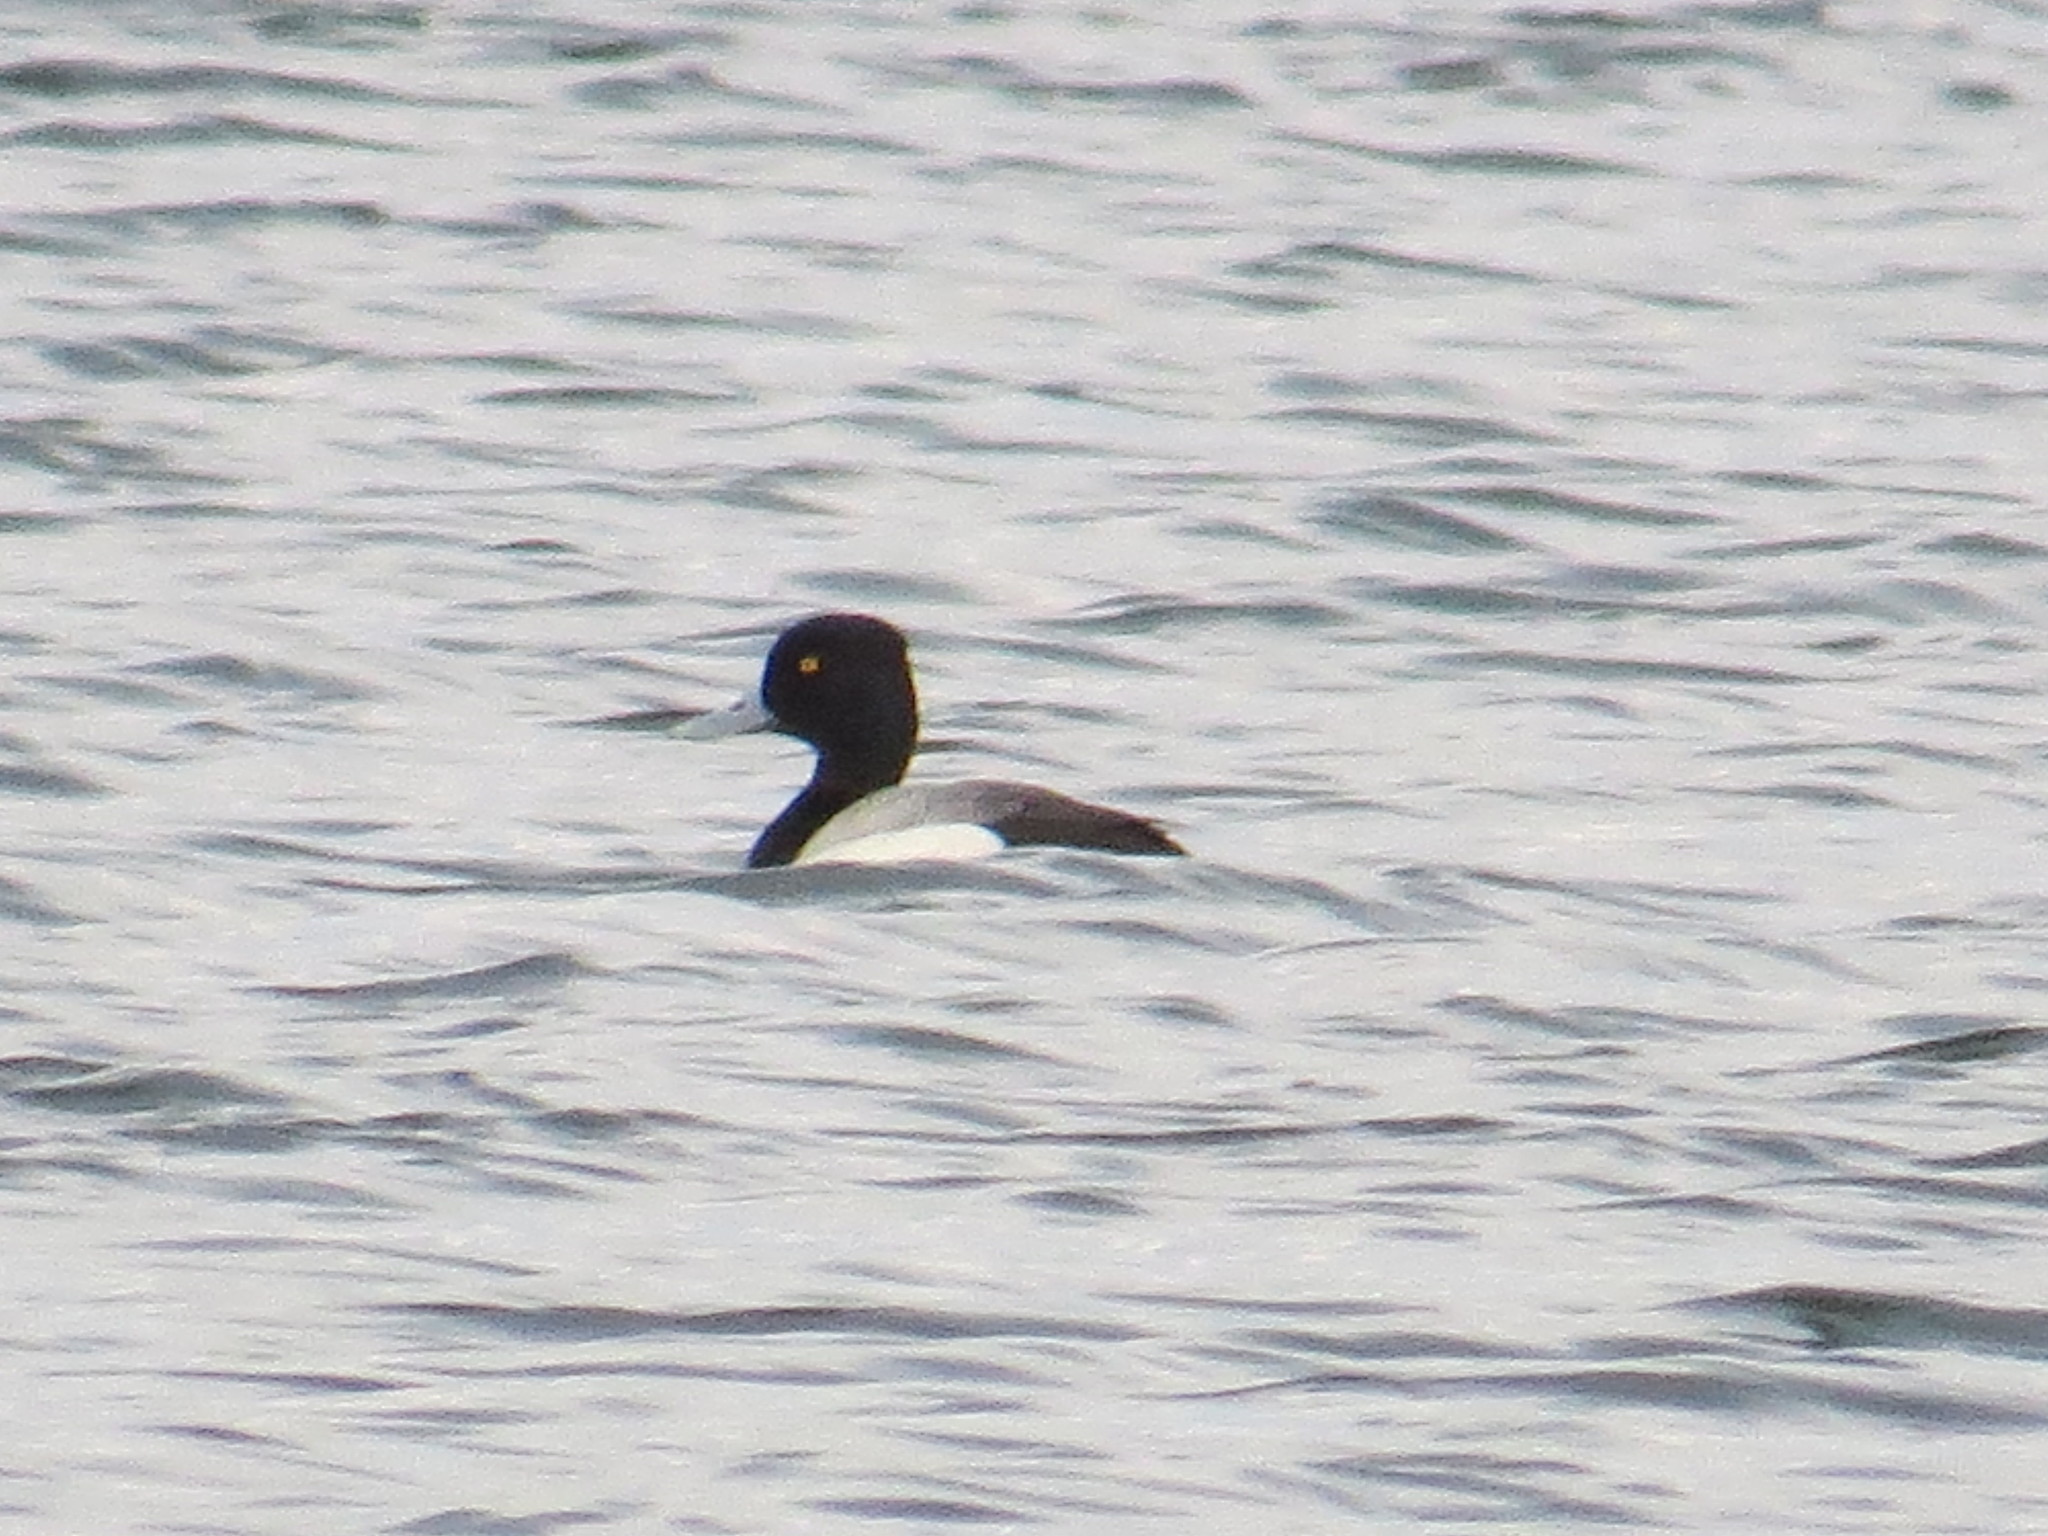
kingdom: Animalia
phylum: Chordata
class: Aves
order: Anseriformes
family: Anatidae
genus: Aythya
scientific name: Aythya affinis
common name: Lesser scaup
